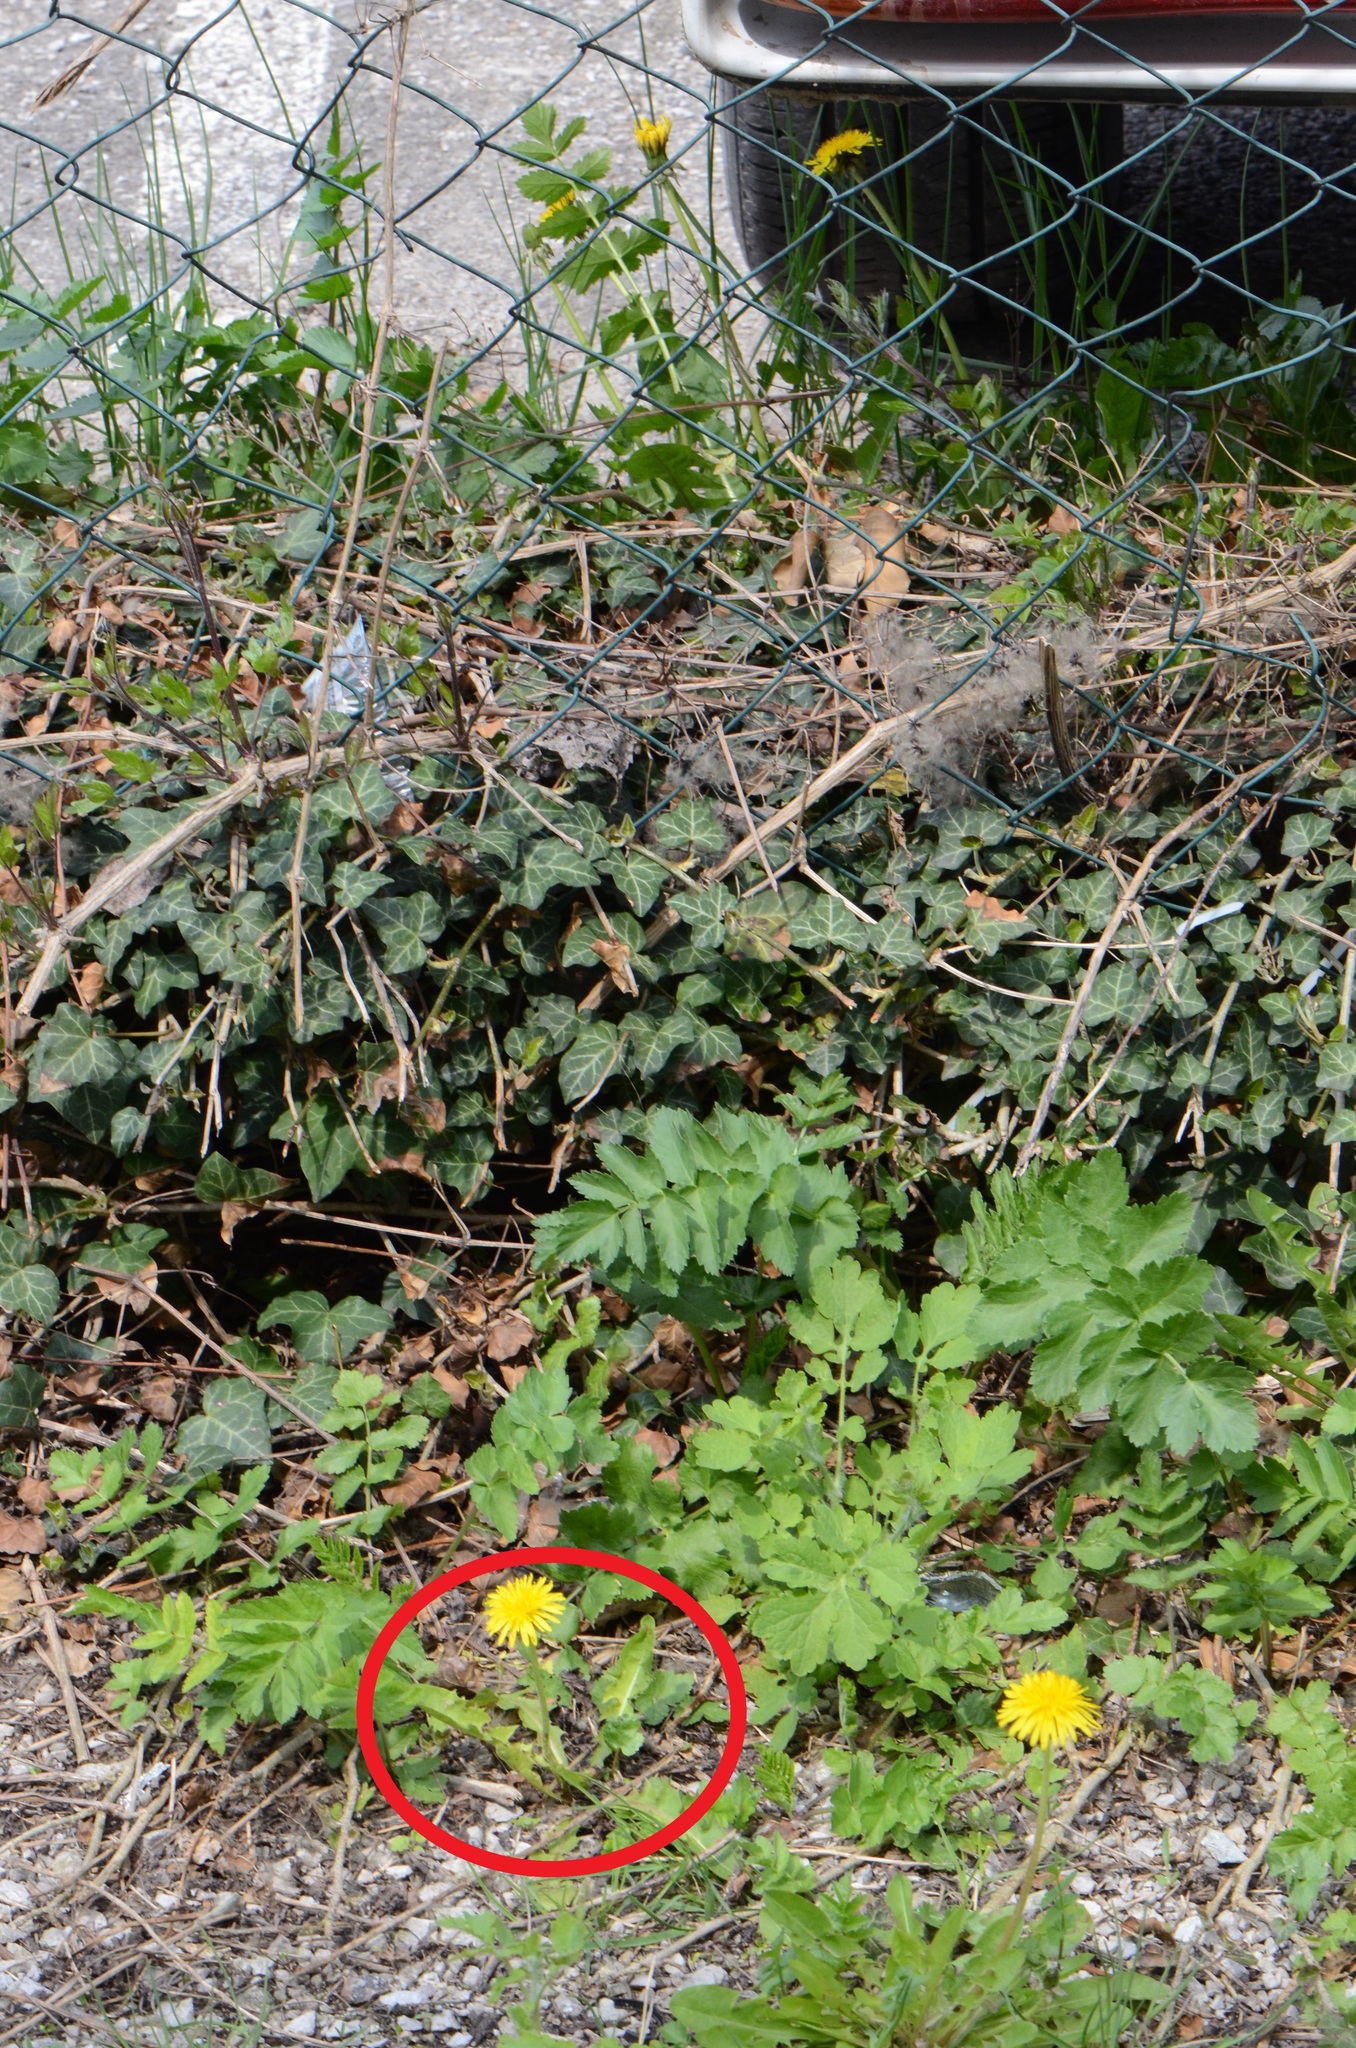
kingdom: Plantae
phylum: Tracheophyta
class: Magnoliopsida
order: Asterales
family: Asteraceae
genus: Taraxacum
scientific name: Taraxacum officinale
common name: Common dandelion
